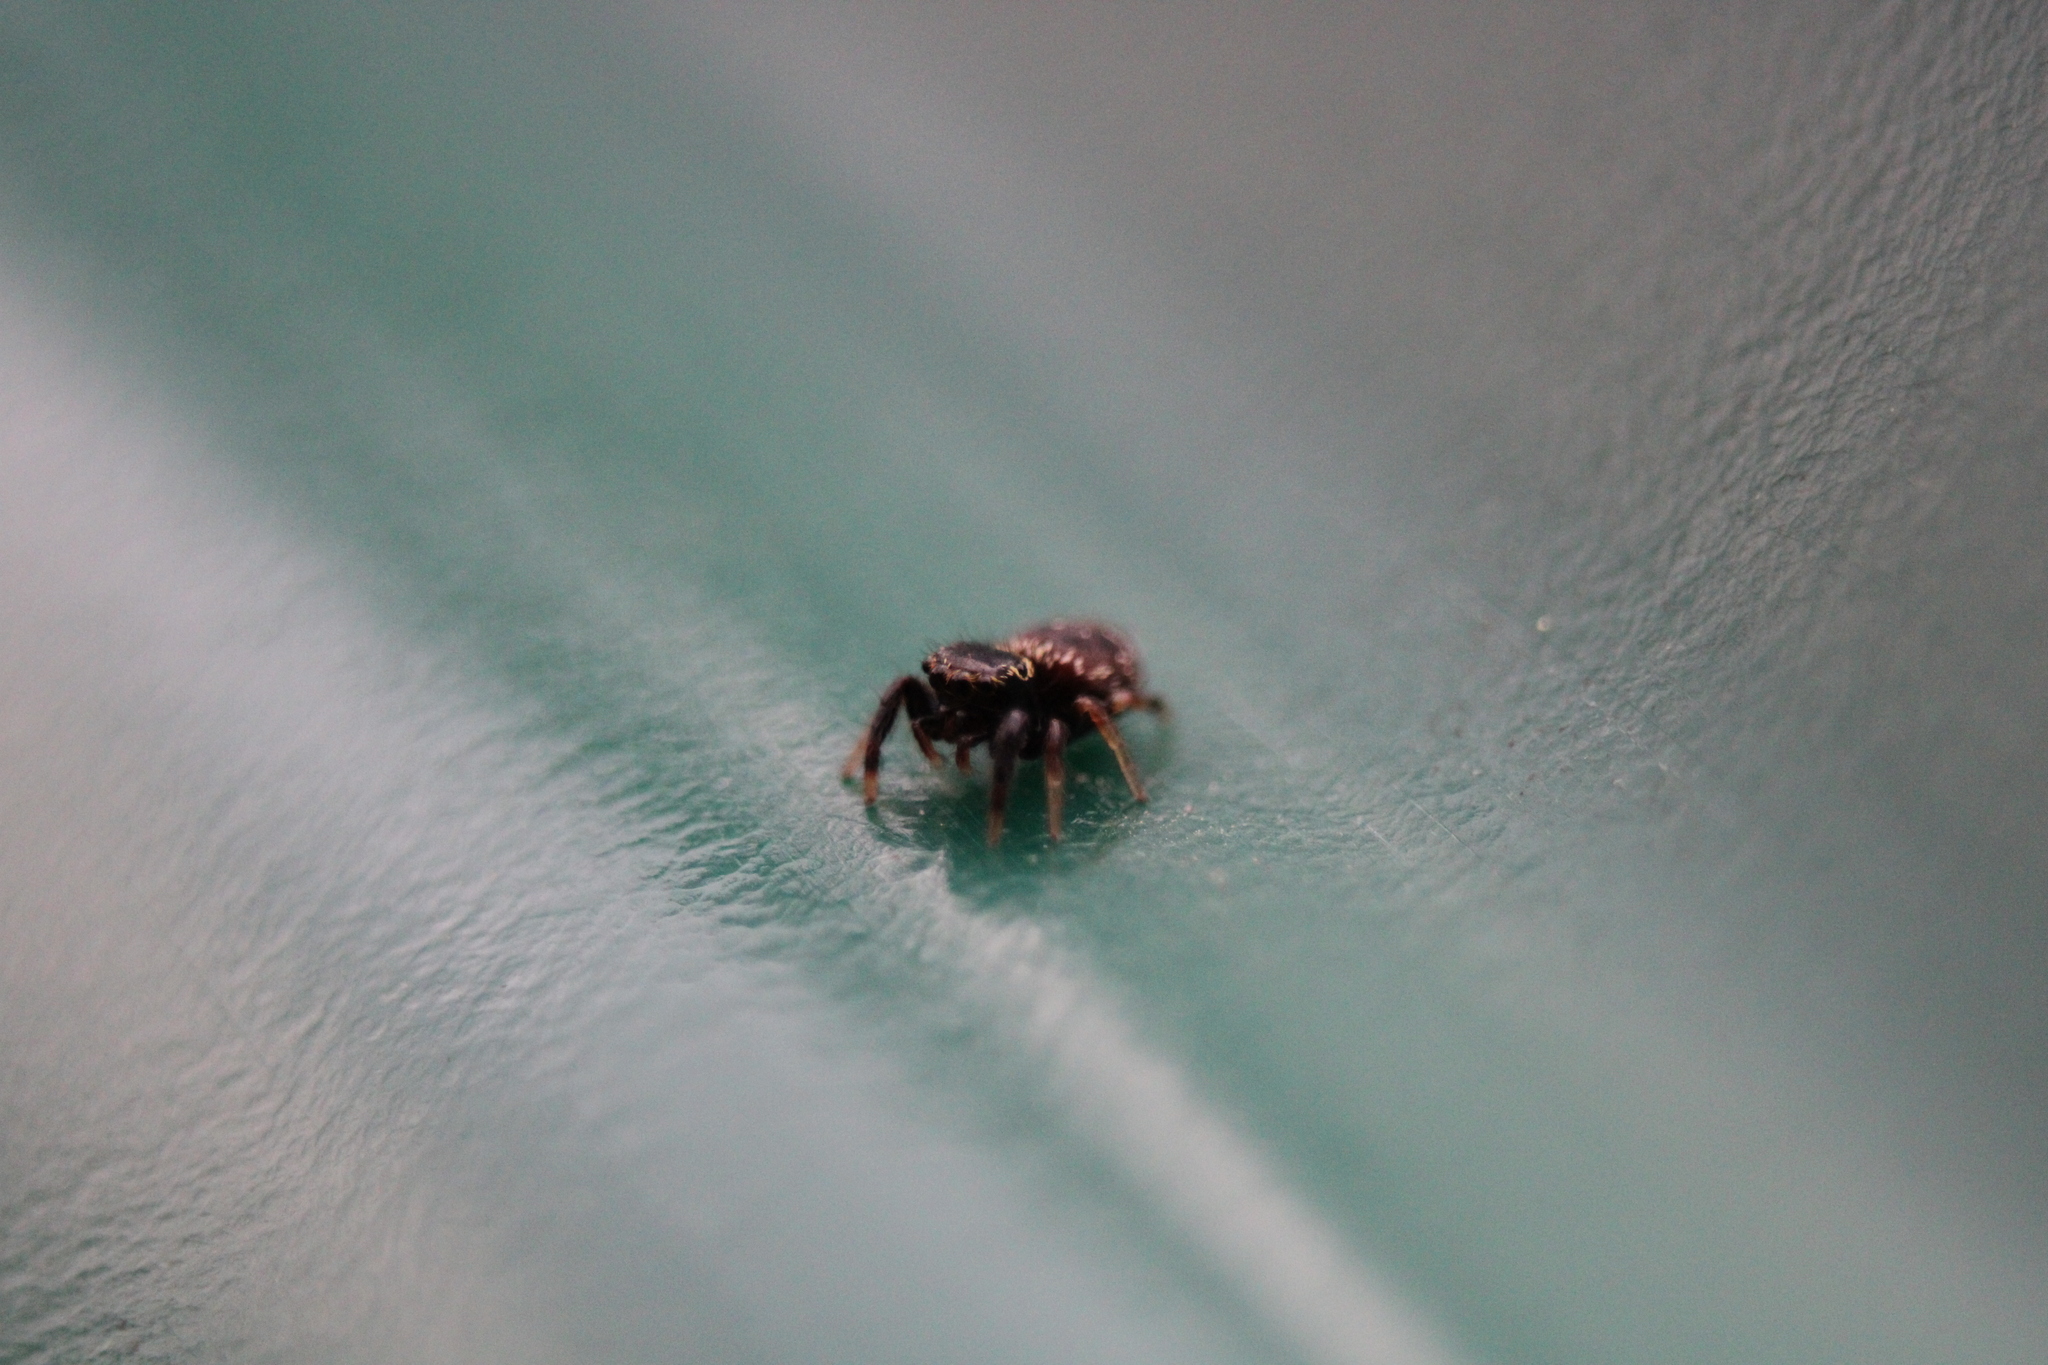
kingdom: Animalia
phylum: Arthropoda
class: Arachnida
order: Araneae
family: Salticidae
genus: Paraphidippus
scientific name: Paraphidippus aurantius
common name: Jumping spiders
